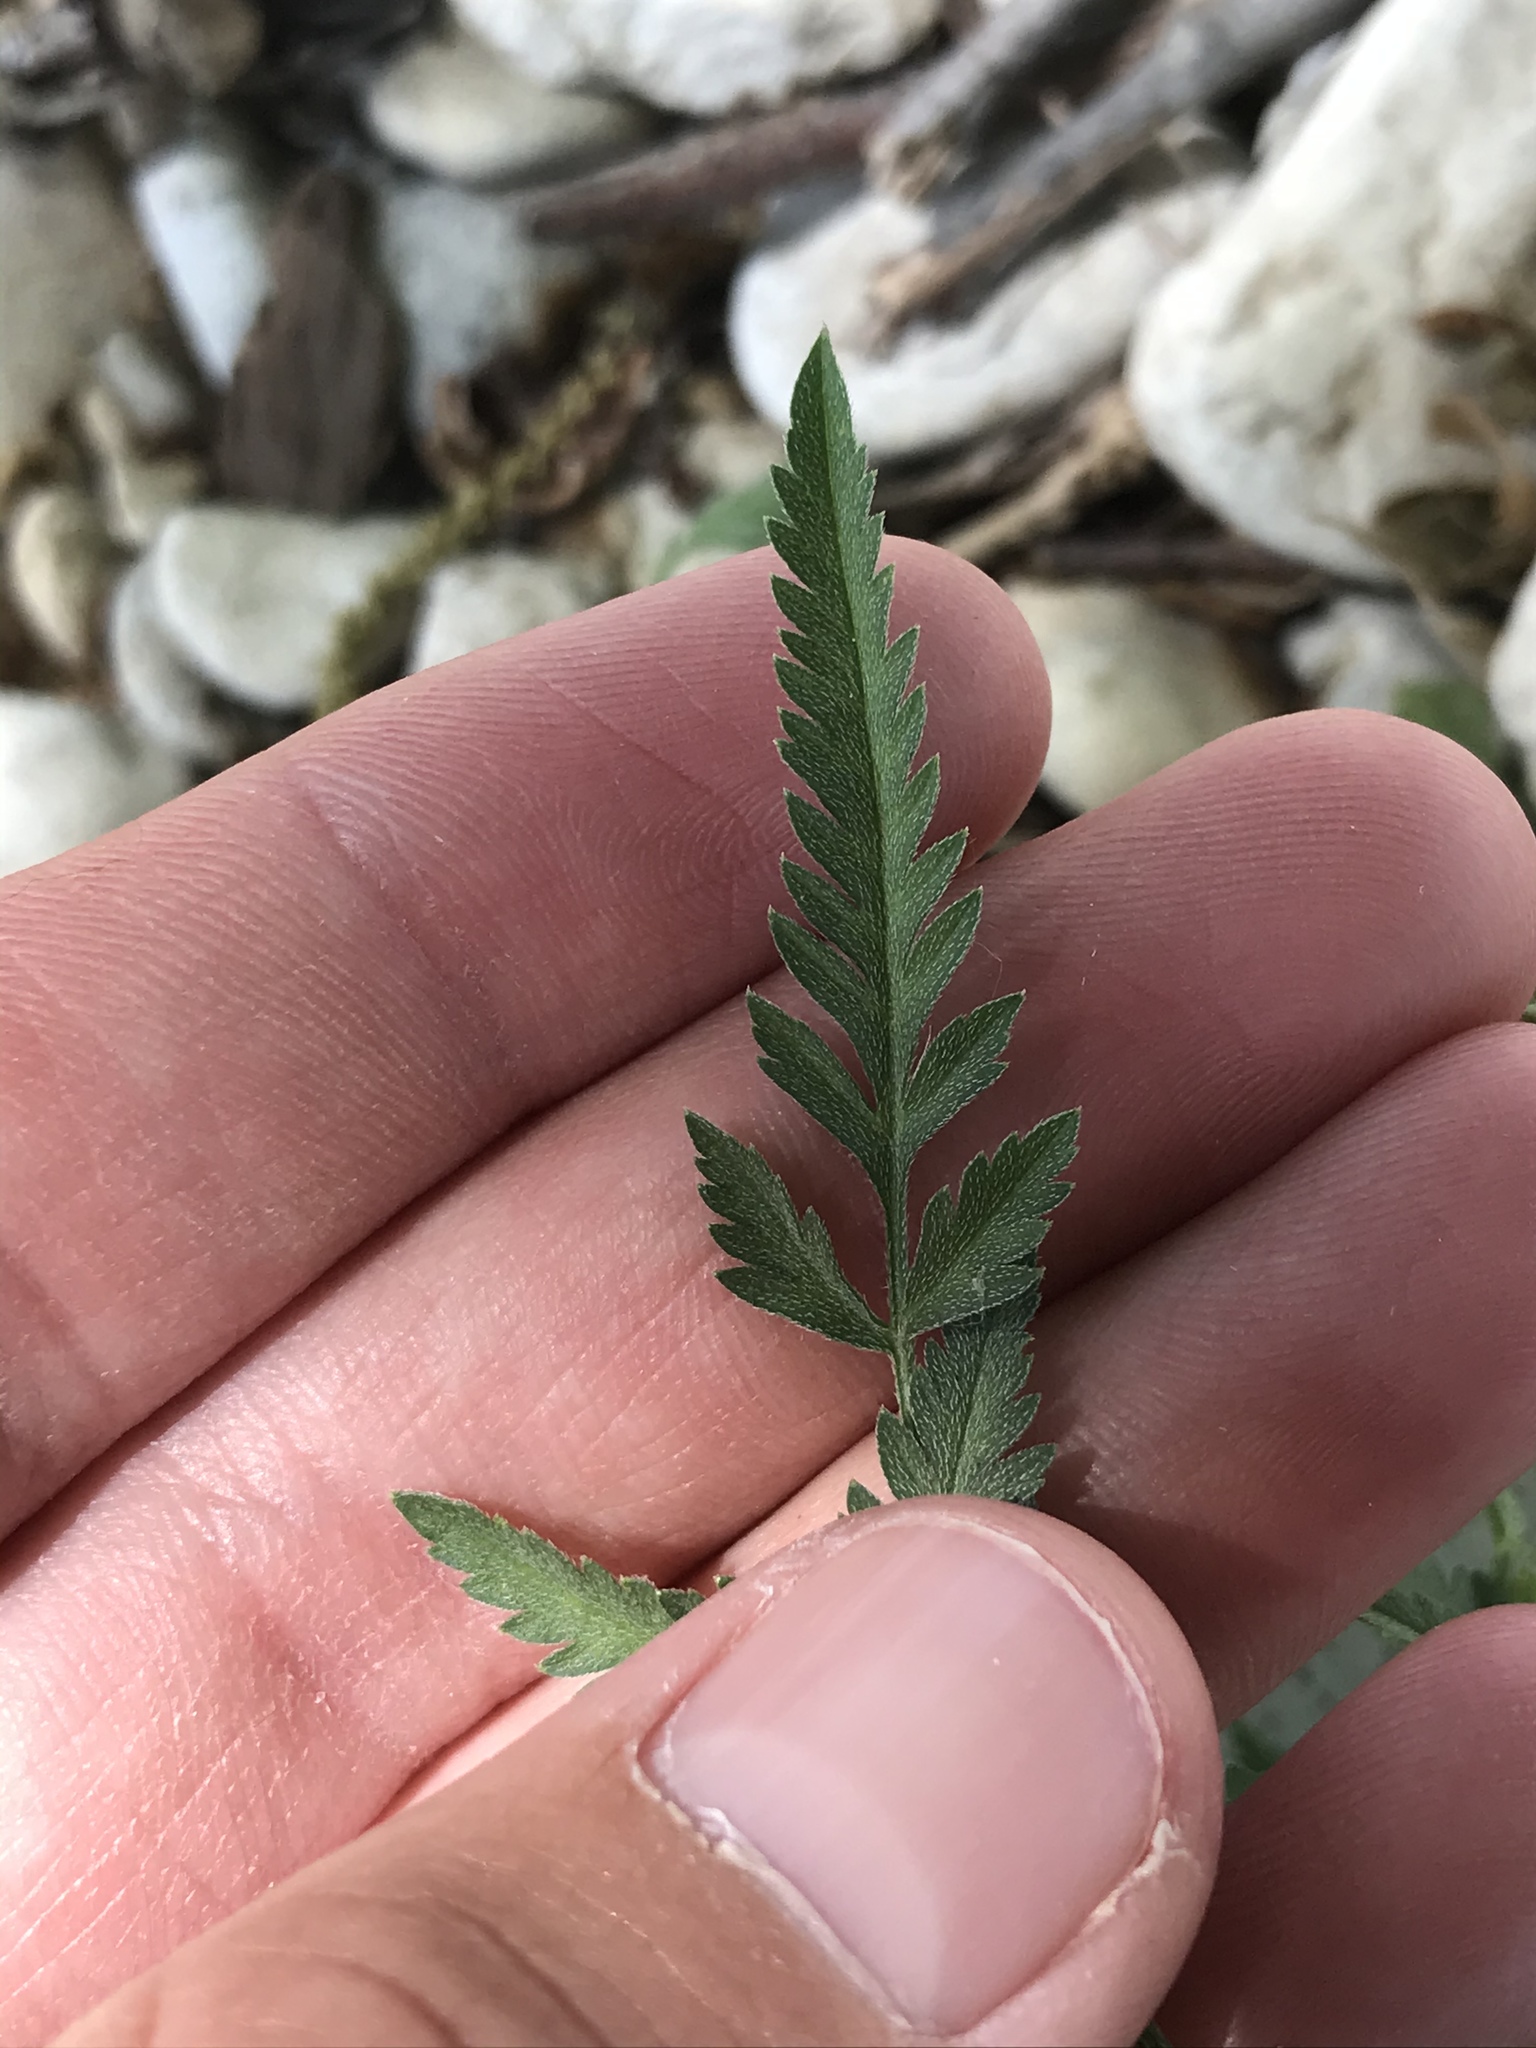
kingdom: Plantae
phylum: Tracheophyta
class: Magnoliopsida
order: Apiales
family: Apiaceae
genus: Torilis
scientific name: Torilis arvensis
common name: Spreading hedge-parsley
